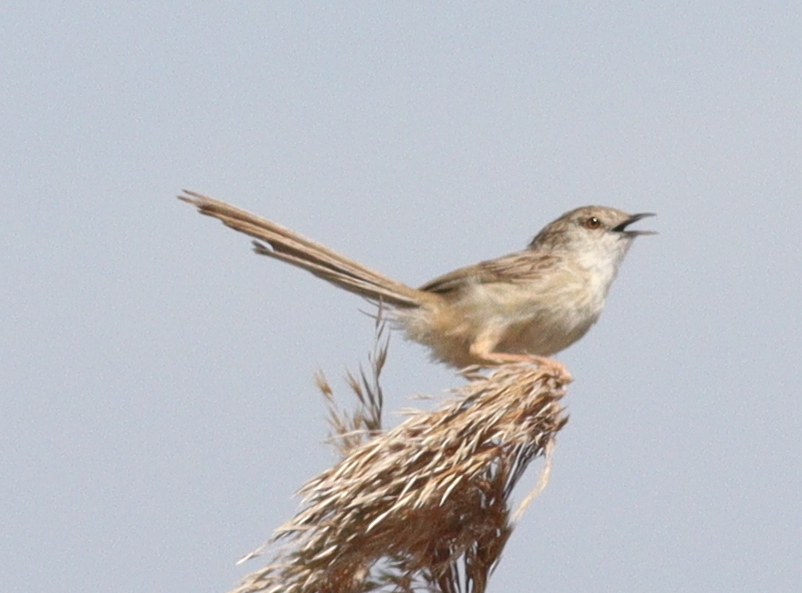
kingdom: Animalia
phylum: Chordata
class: Aves
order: Passeriformes
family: Cisticolidae
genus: Prinia
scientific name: Prinia lepida
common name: Delicate prinia
